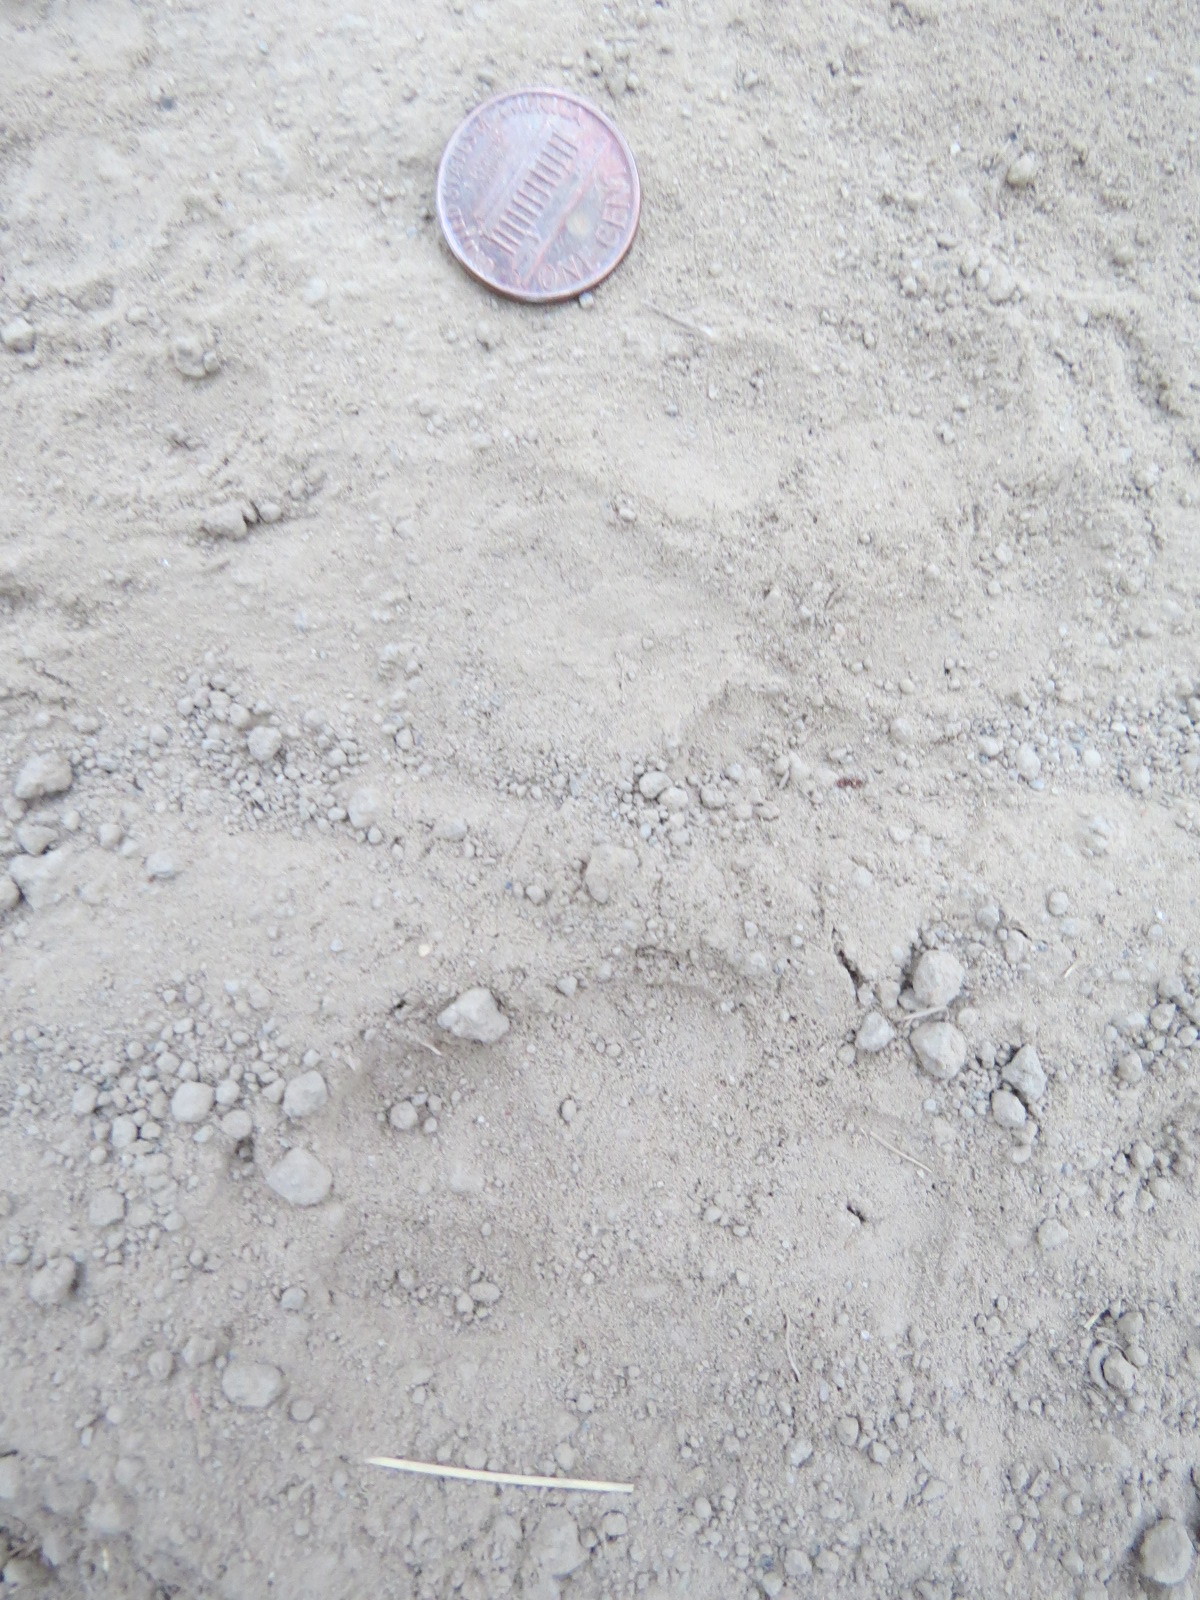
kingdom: Animalia
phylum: Chordata
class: Mammalia
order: Carnivora
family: Canidae
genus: Canis
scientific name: Canis latrans
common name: Coyote
